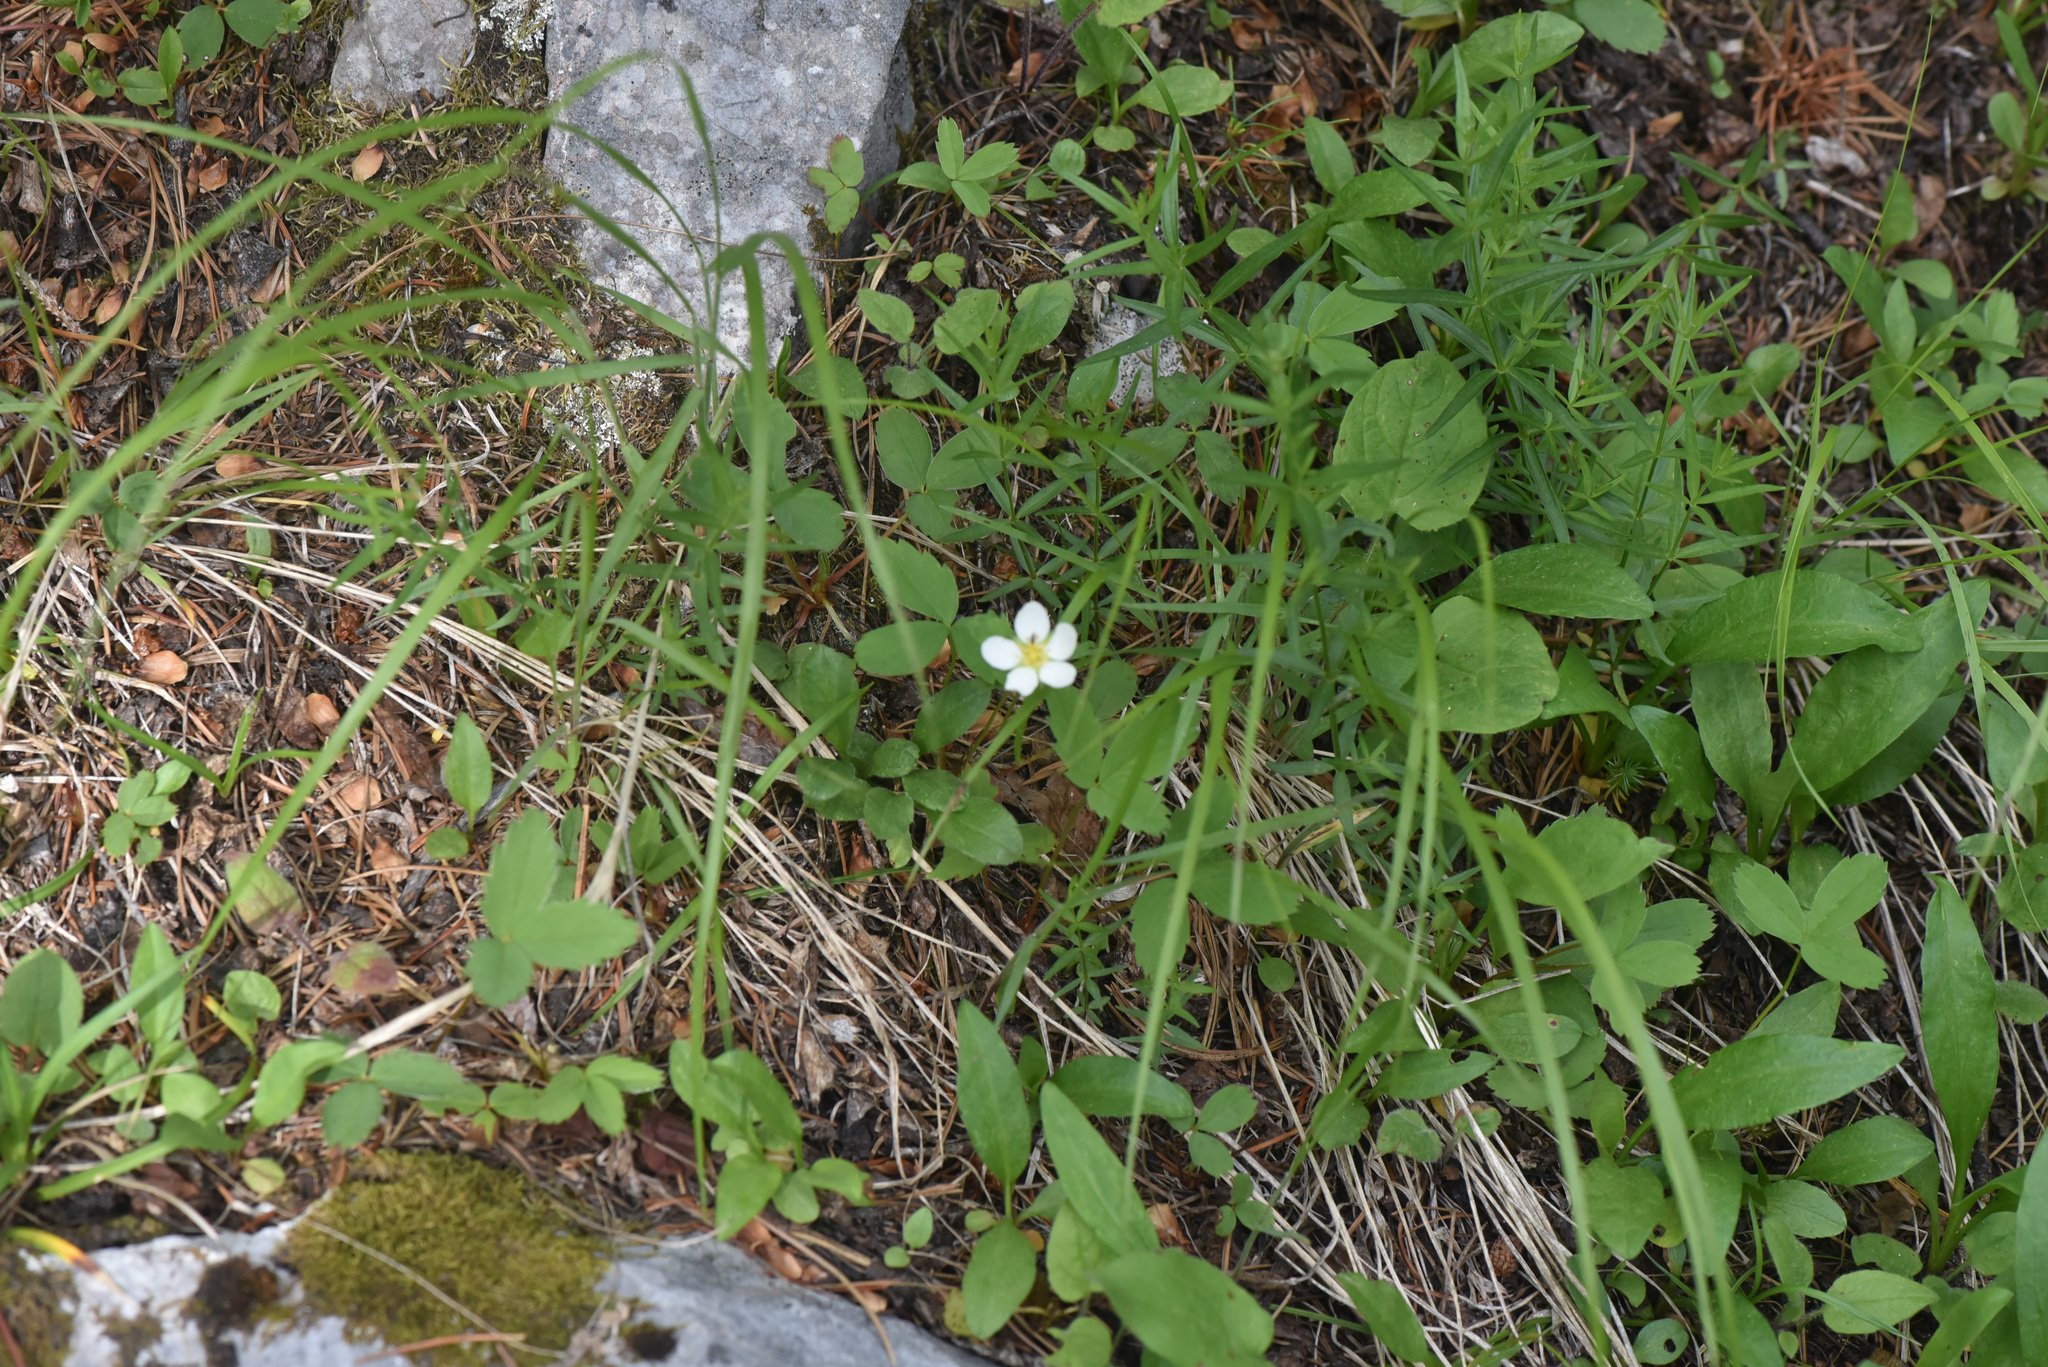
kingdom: Plantae
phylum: Tracheophyta
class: Magnoliopsida
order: Rosales
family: Rosaceae
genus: Fragaria
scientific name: Fragaria virginiana
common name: Thickleaved wild strawberry
